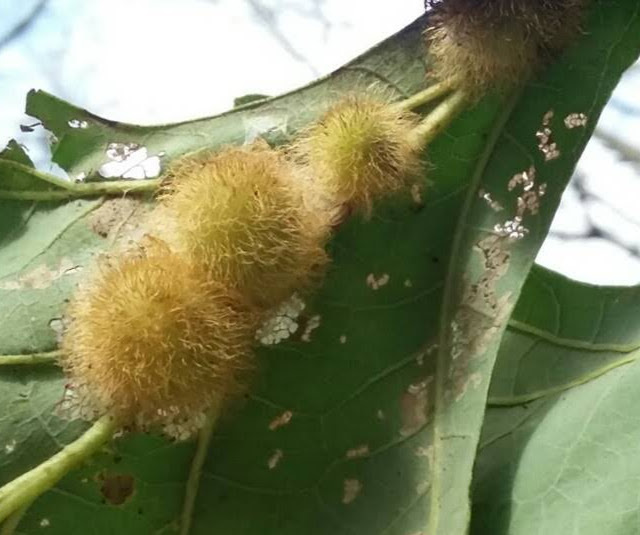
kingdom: Animalia
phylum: Arthropoda
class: Insecta
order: Hymenoptera
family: Cynipidae
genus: Acraspis
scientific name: Acraspis villosa
